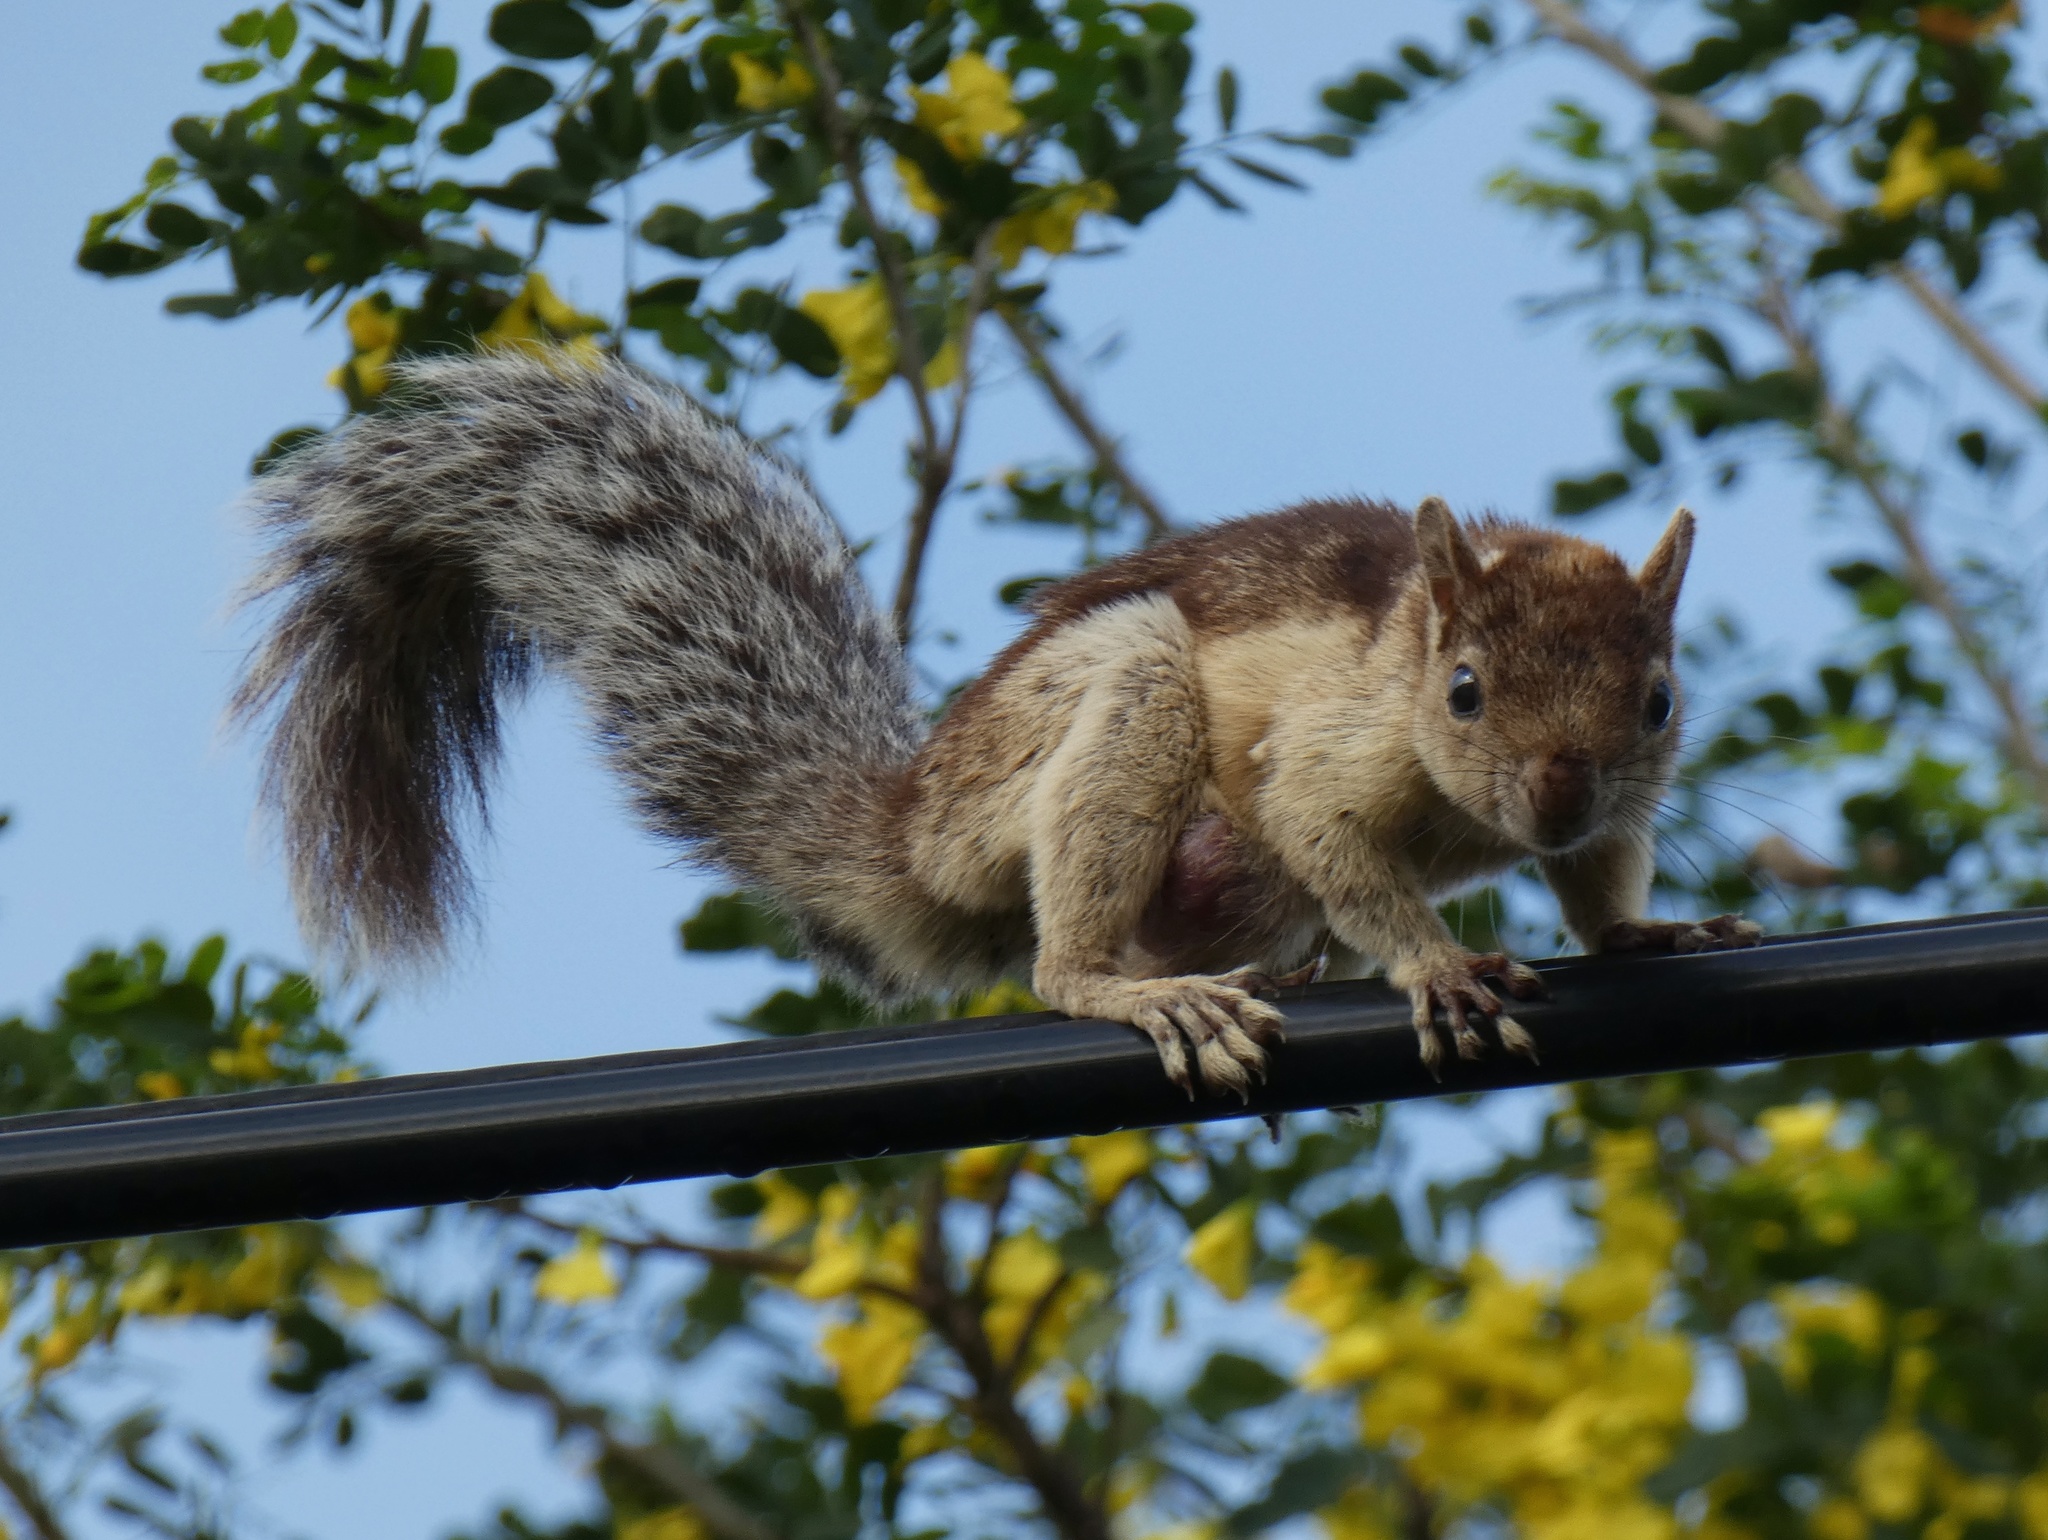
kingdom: Animalia
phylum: Chordata
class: Mammalia
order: Rodentia
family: Sciuridae
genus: Sciurus
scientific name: Sciurus variegatoides
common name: Variegated squirrel
